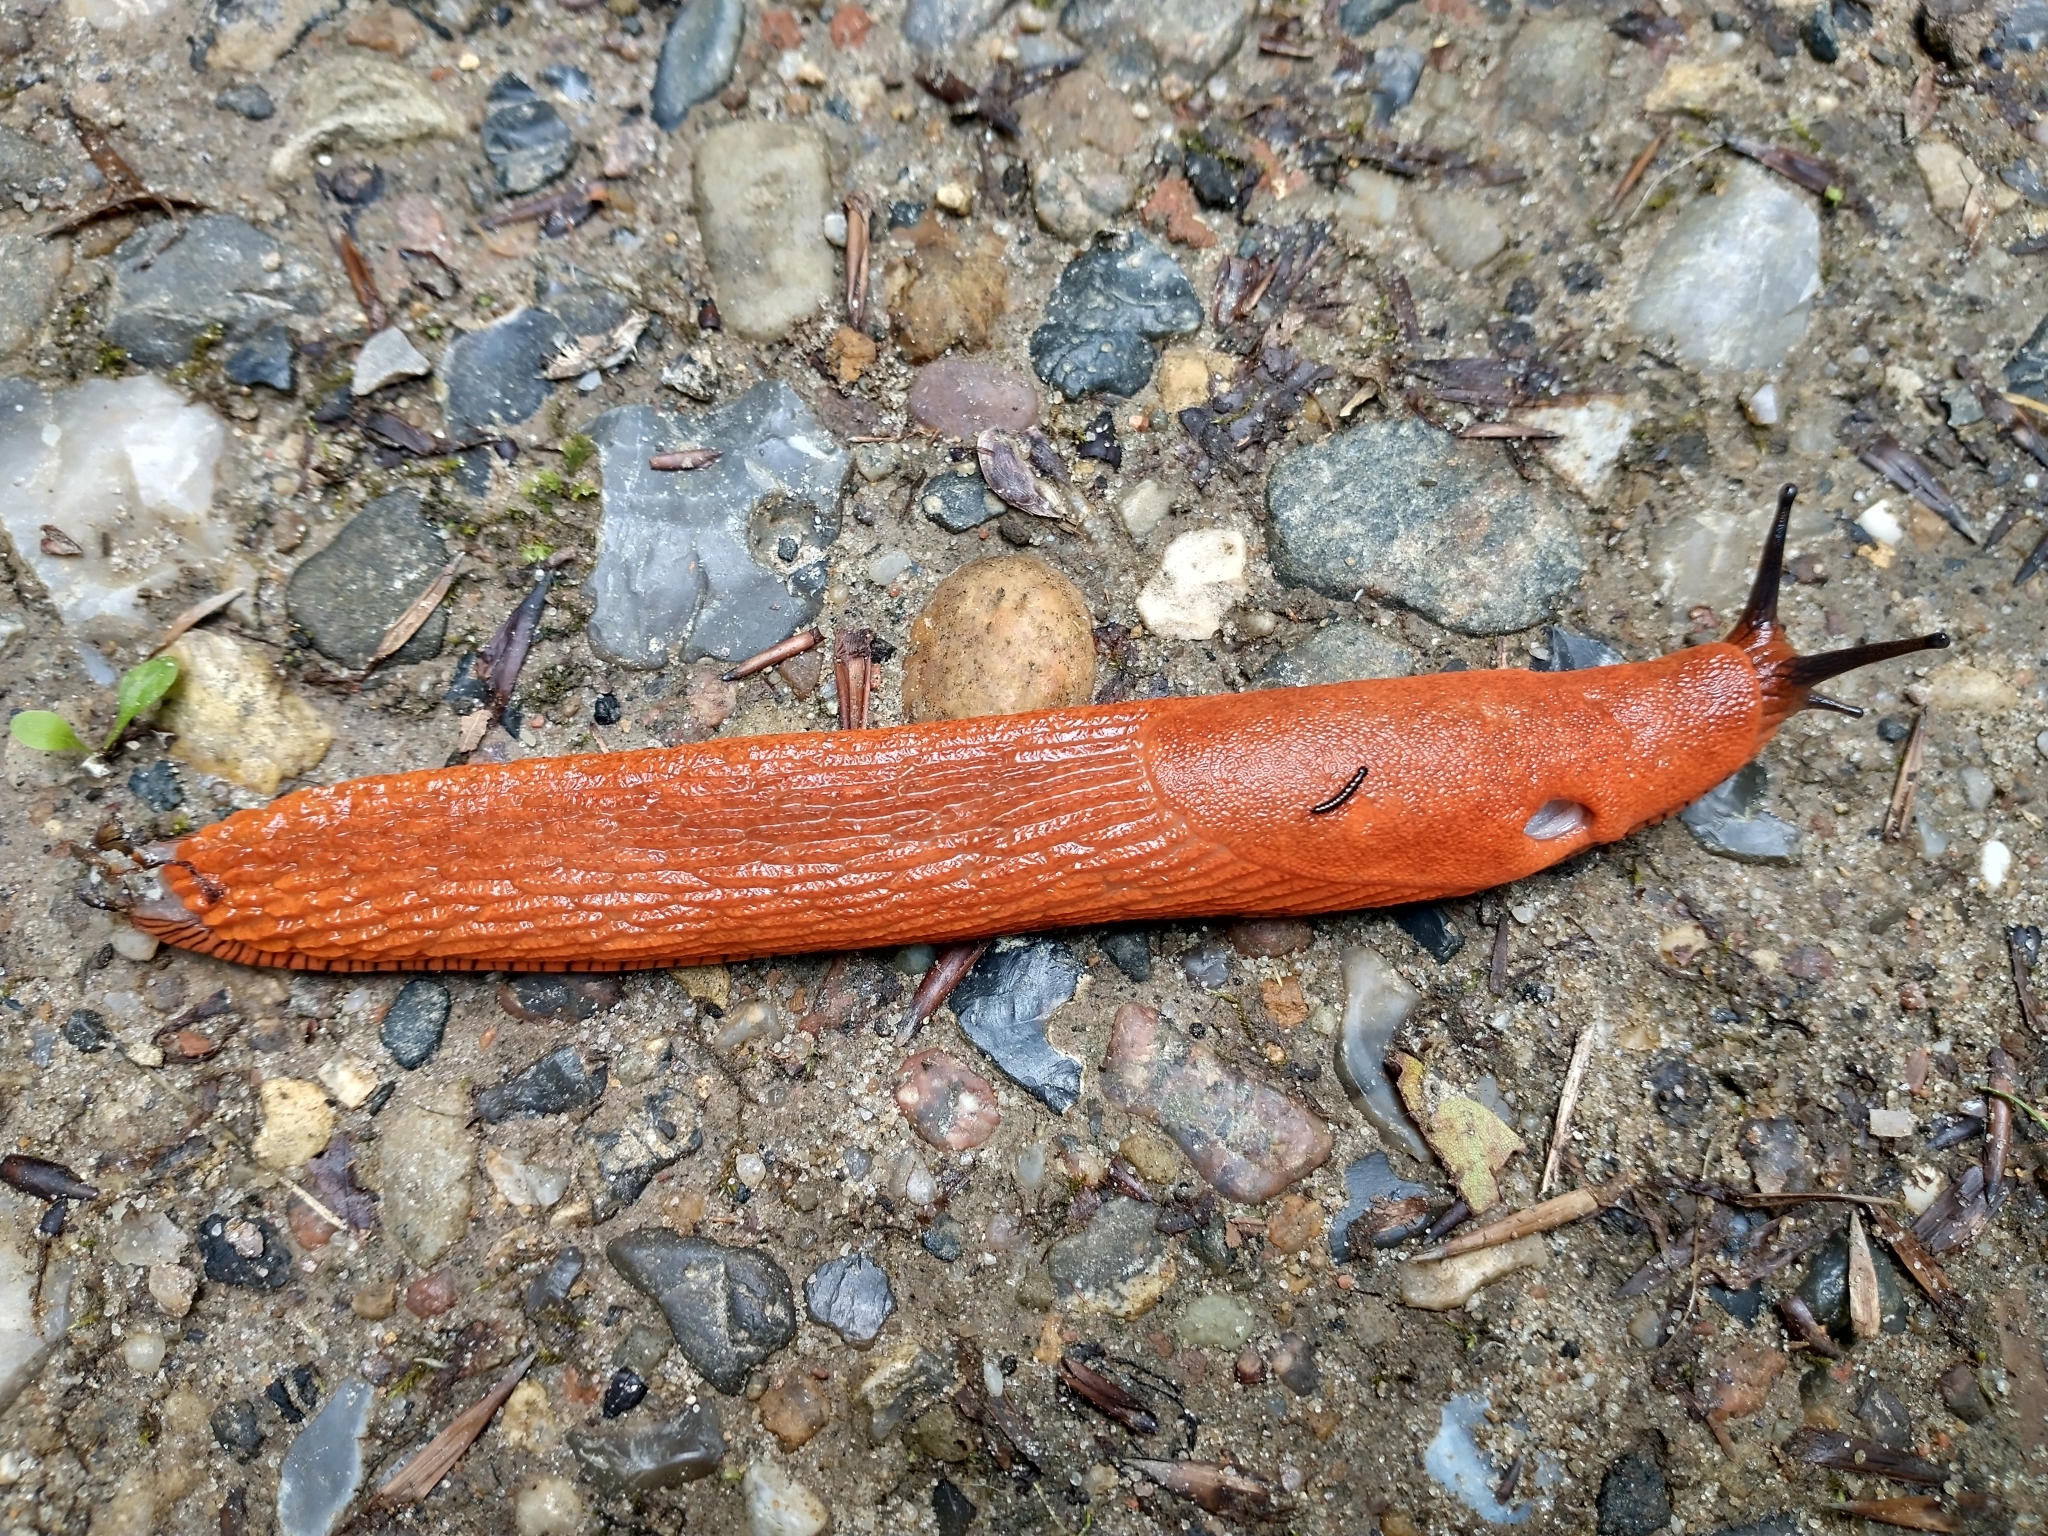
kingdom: Animalia
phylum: Mollusca
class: Gastropoda
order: Stylommatophora
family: Arionidae
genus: Arion
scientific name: Arion vulgaris
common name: Lusitanian slug
